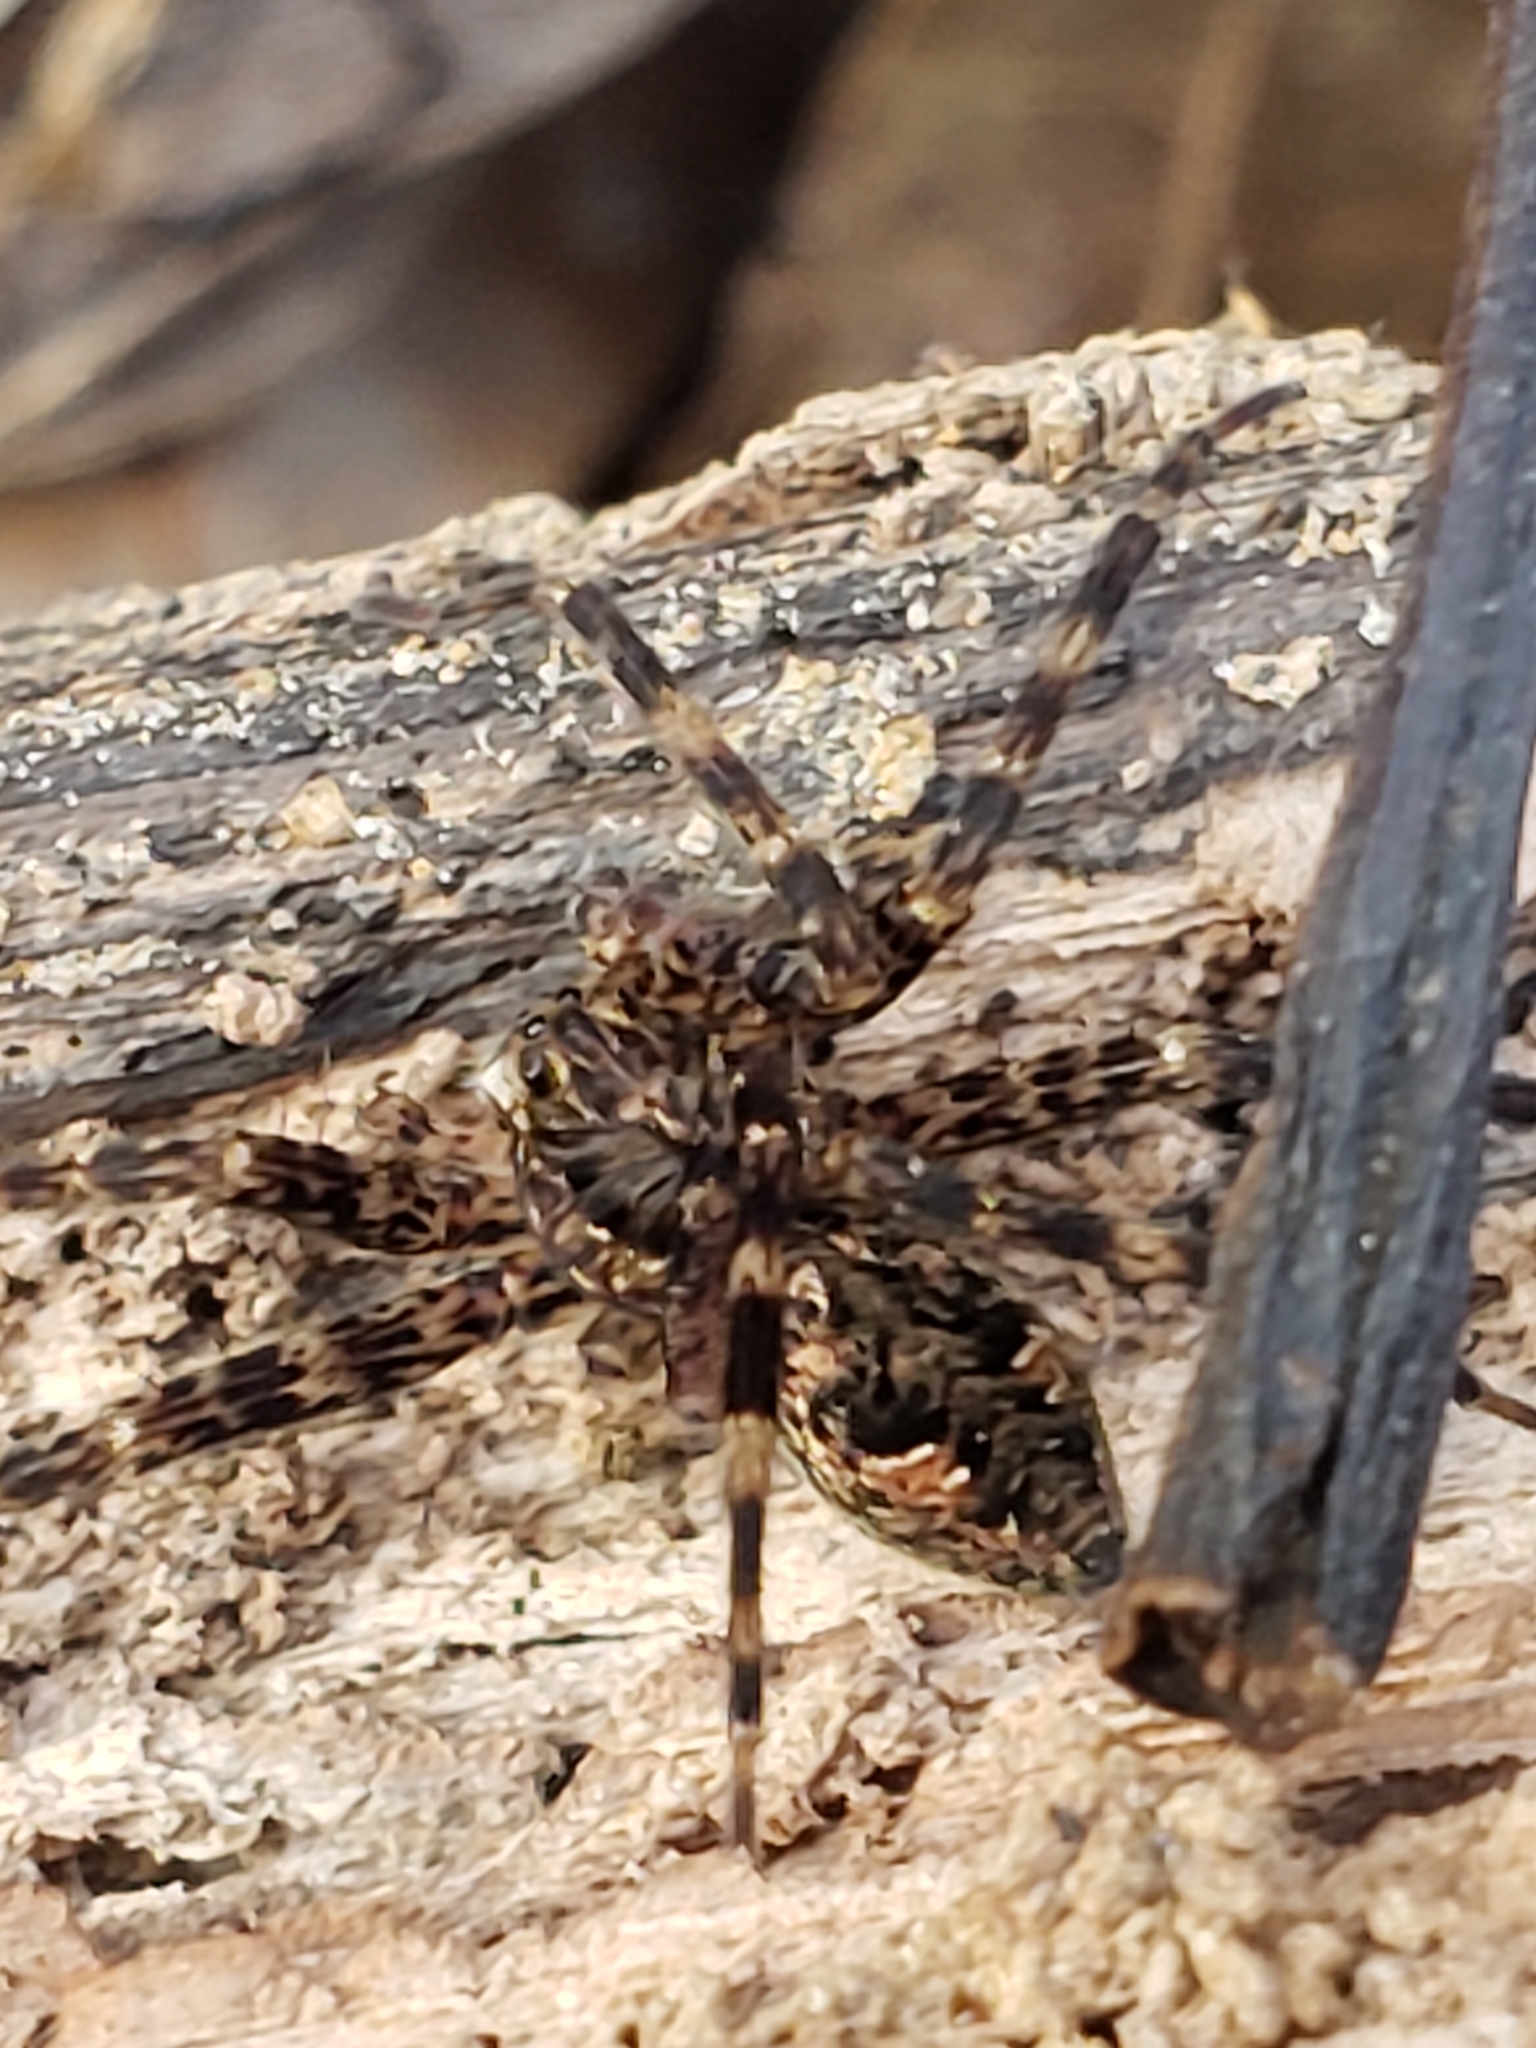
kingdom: Animalia
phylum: Arthropoda
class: Arachnida
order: Araneae
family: Pisauridae
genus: Dolomedes
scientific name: Dolomedes tenebrosus
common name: Dark fishing spider
